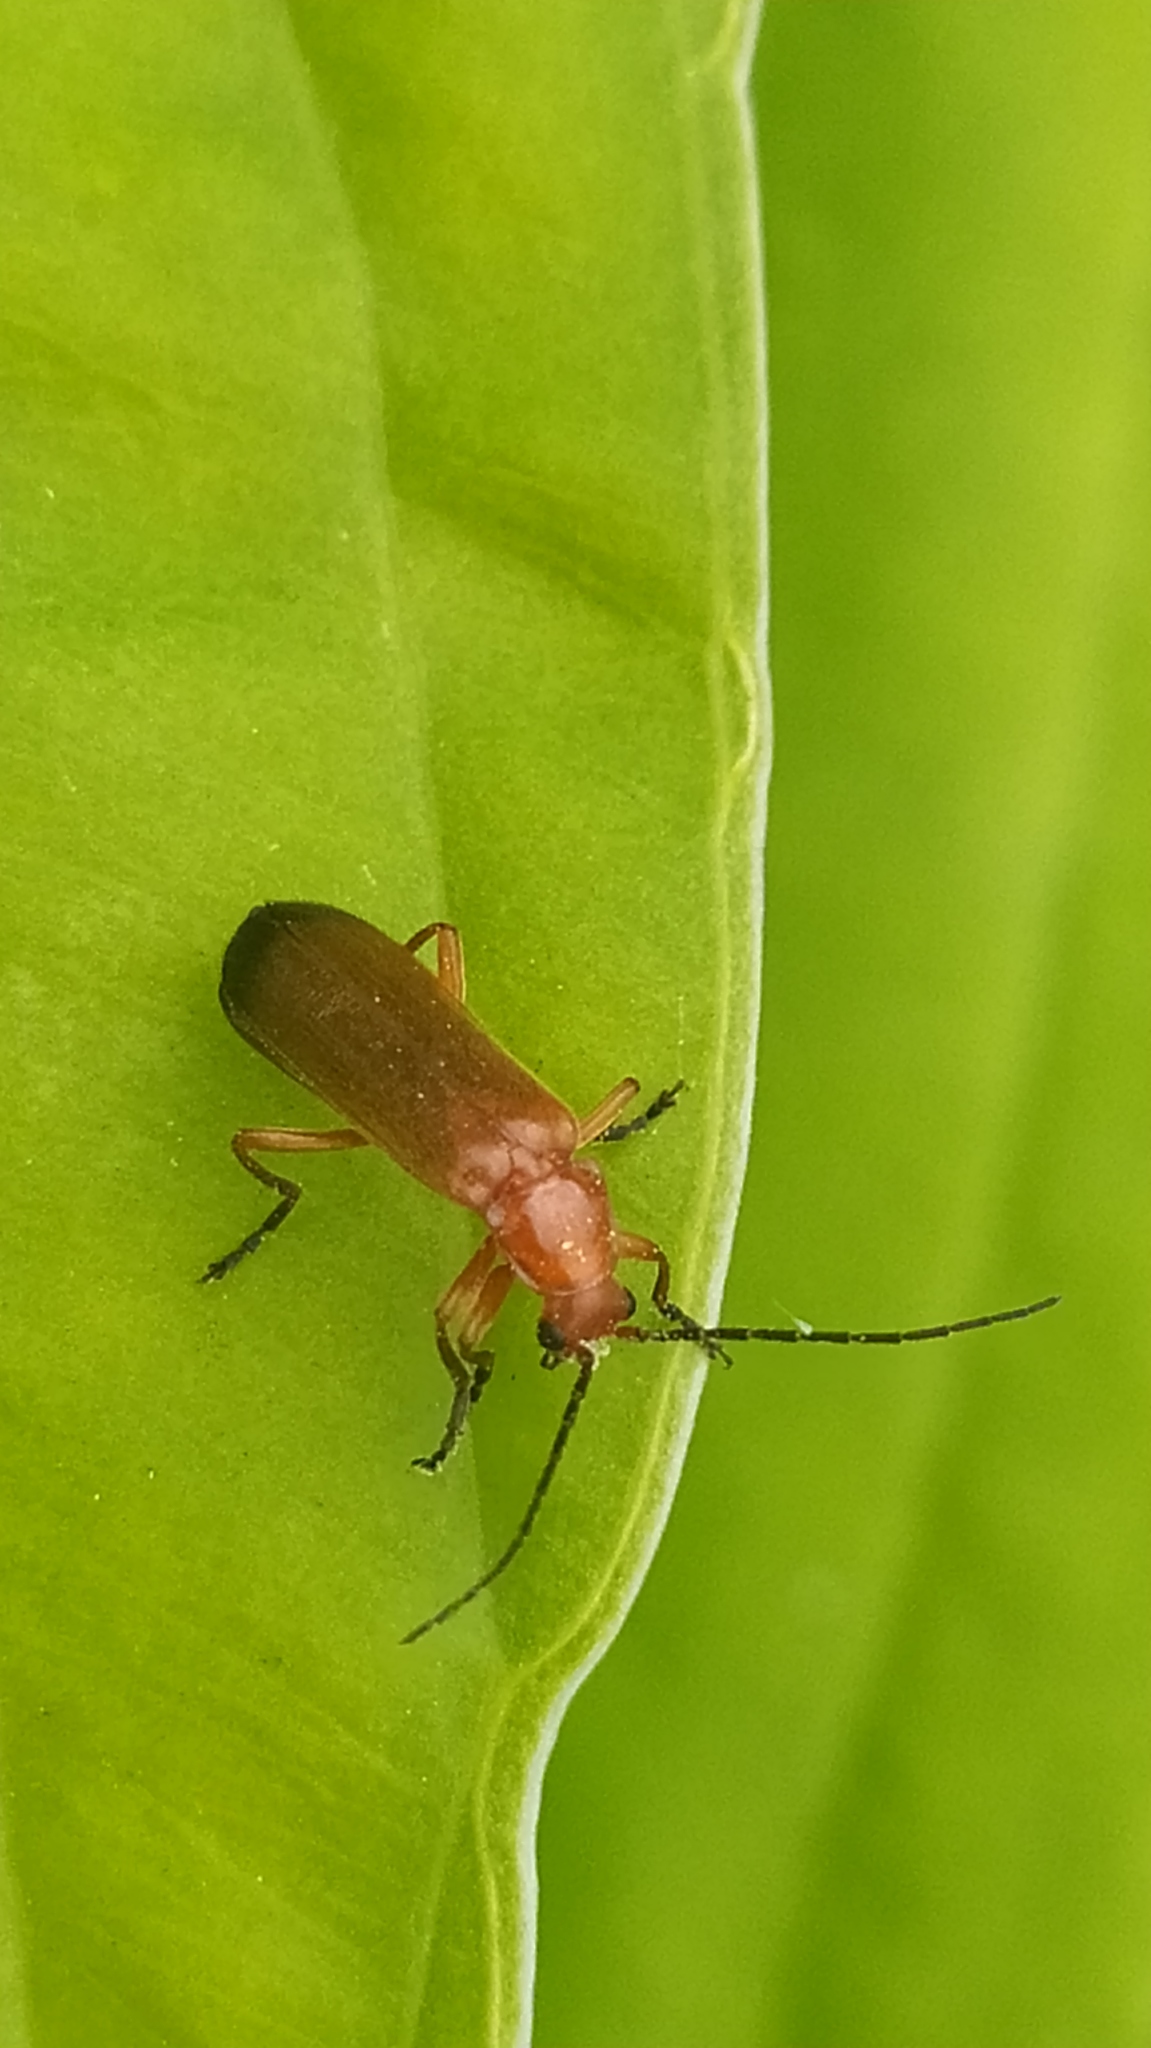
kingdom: Animalia
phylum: Arthropoda
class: Insecta
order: Coleoptera
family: Cantharidae
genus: Rhagonycha
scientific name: Rhagonycha fulva
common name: Common red soldier beetle
